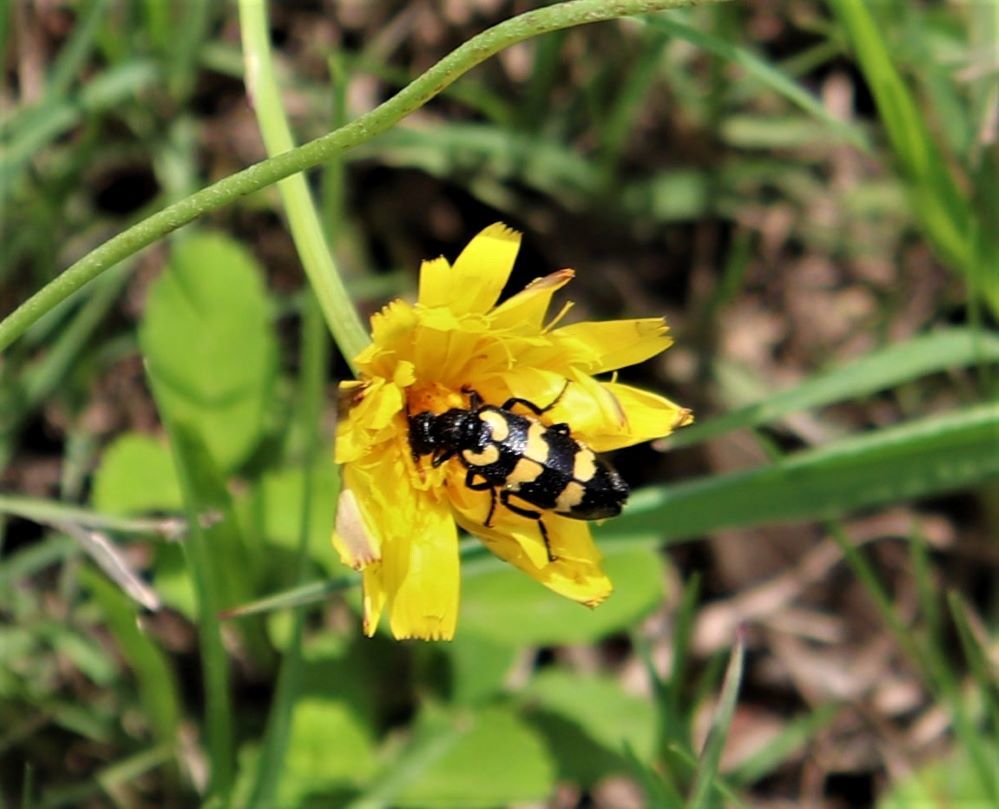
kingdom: Animalia
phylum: Arthropoda
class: Insecta
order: Coleoptera
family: Meloidae
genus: Meloe
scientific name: Meloe lunata
